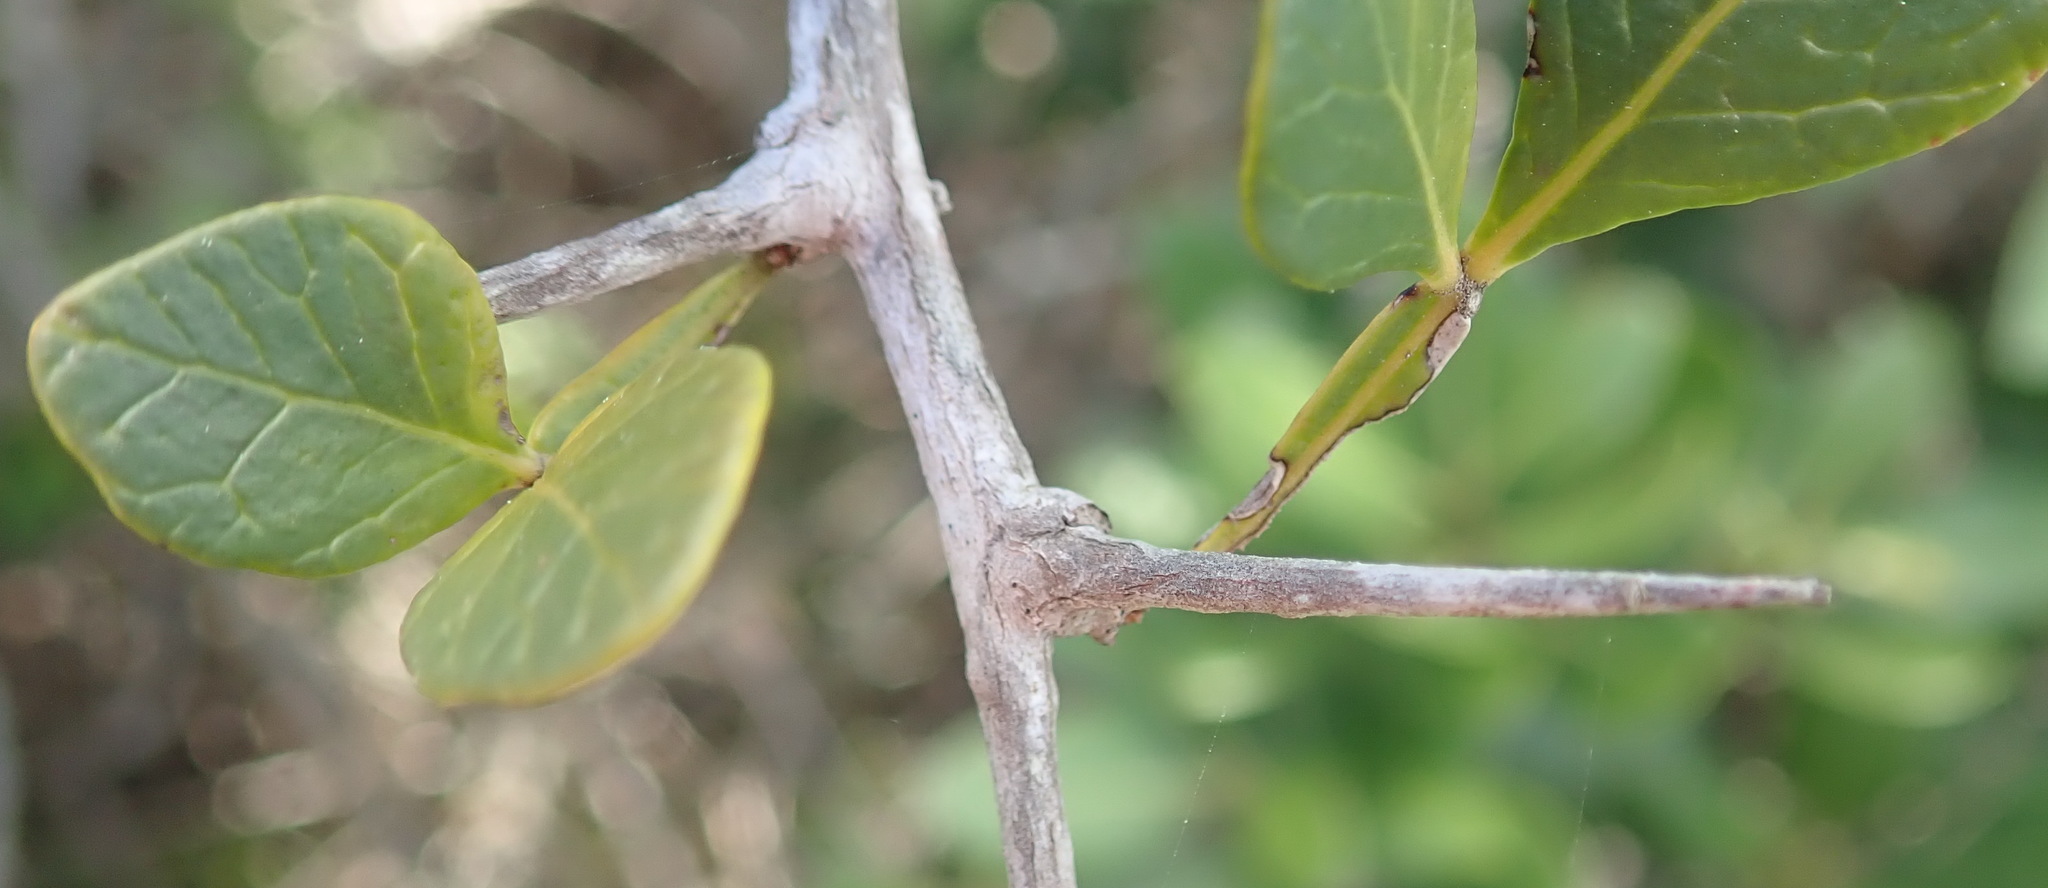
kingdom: Plantae
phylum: Tracheophyta
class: Magnoliopsida
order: Sapindales
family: Anacardiaceae
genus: Searsia
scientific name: Searsia pterota
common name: Winged currant
